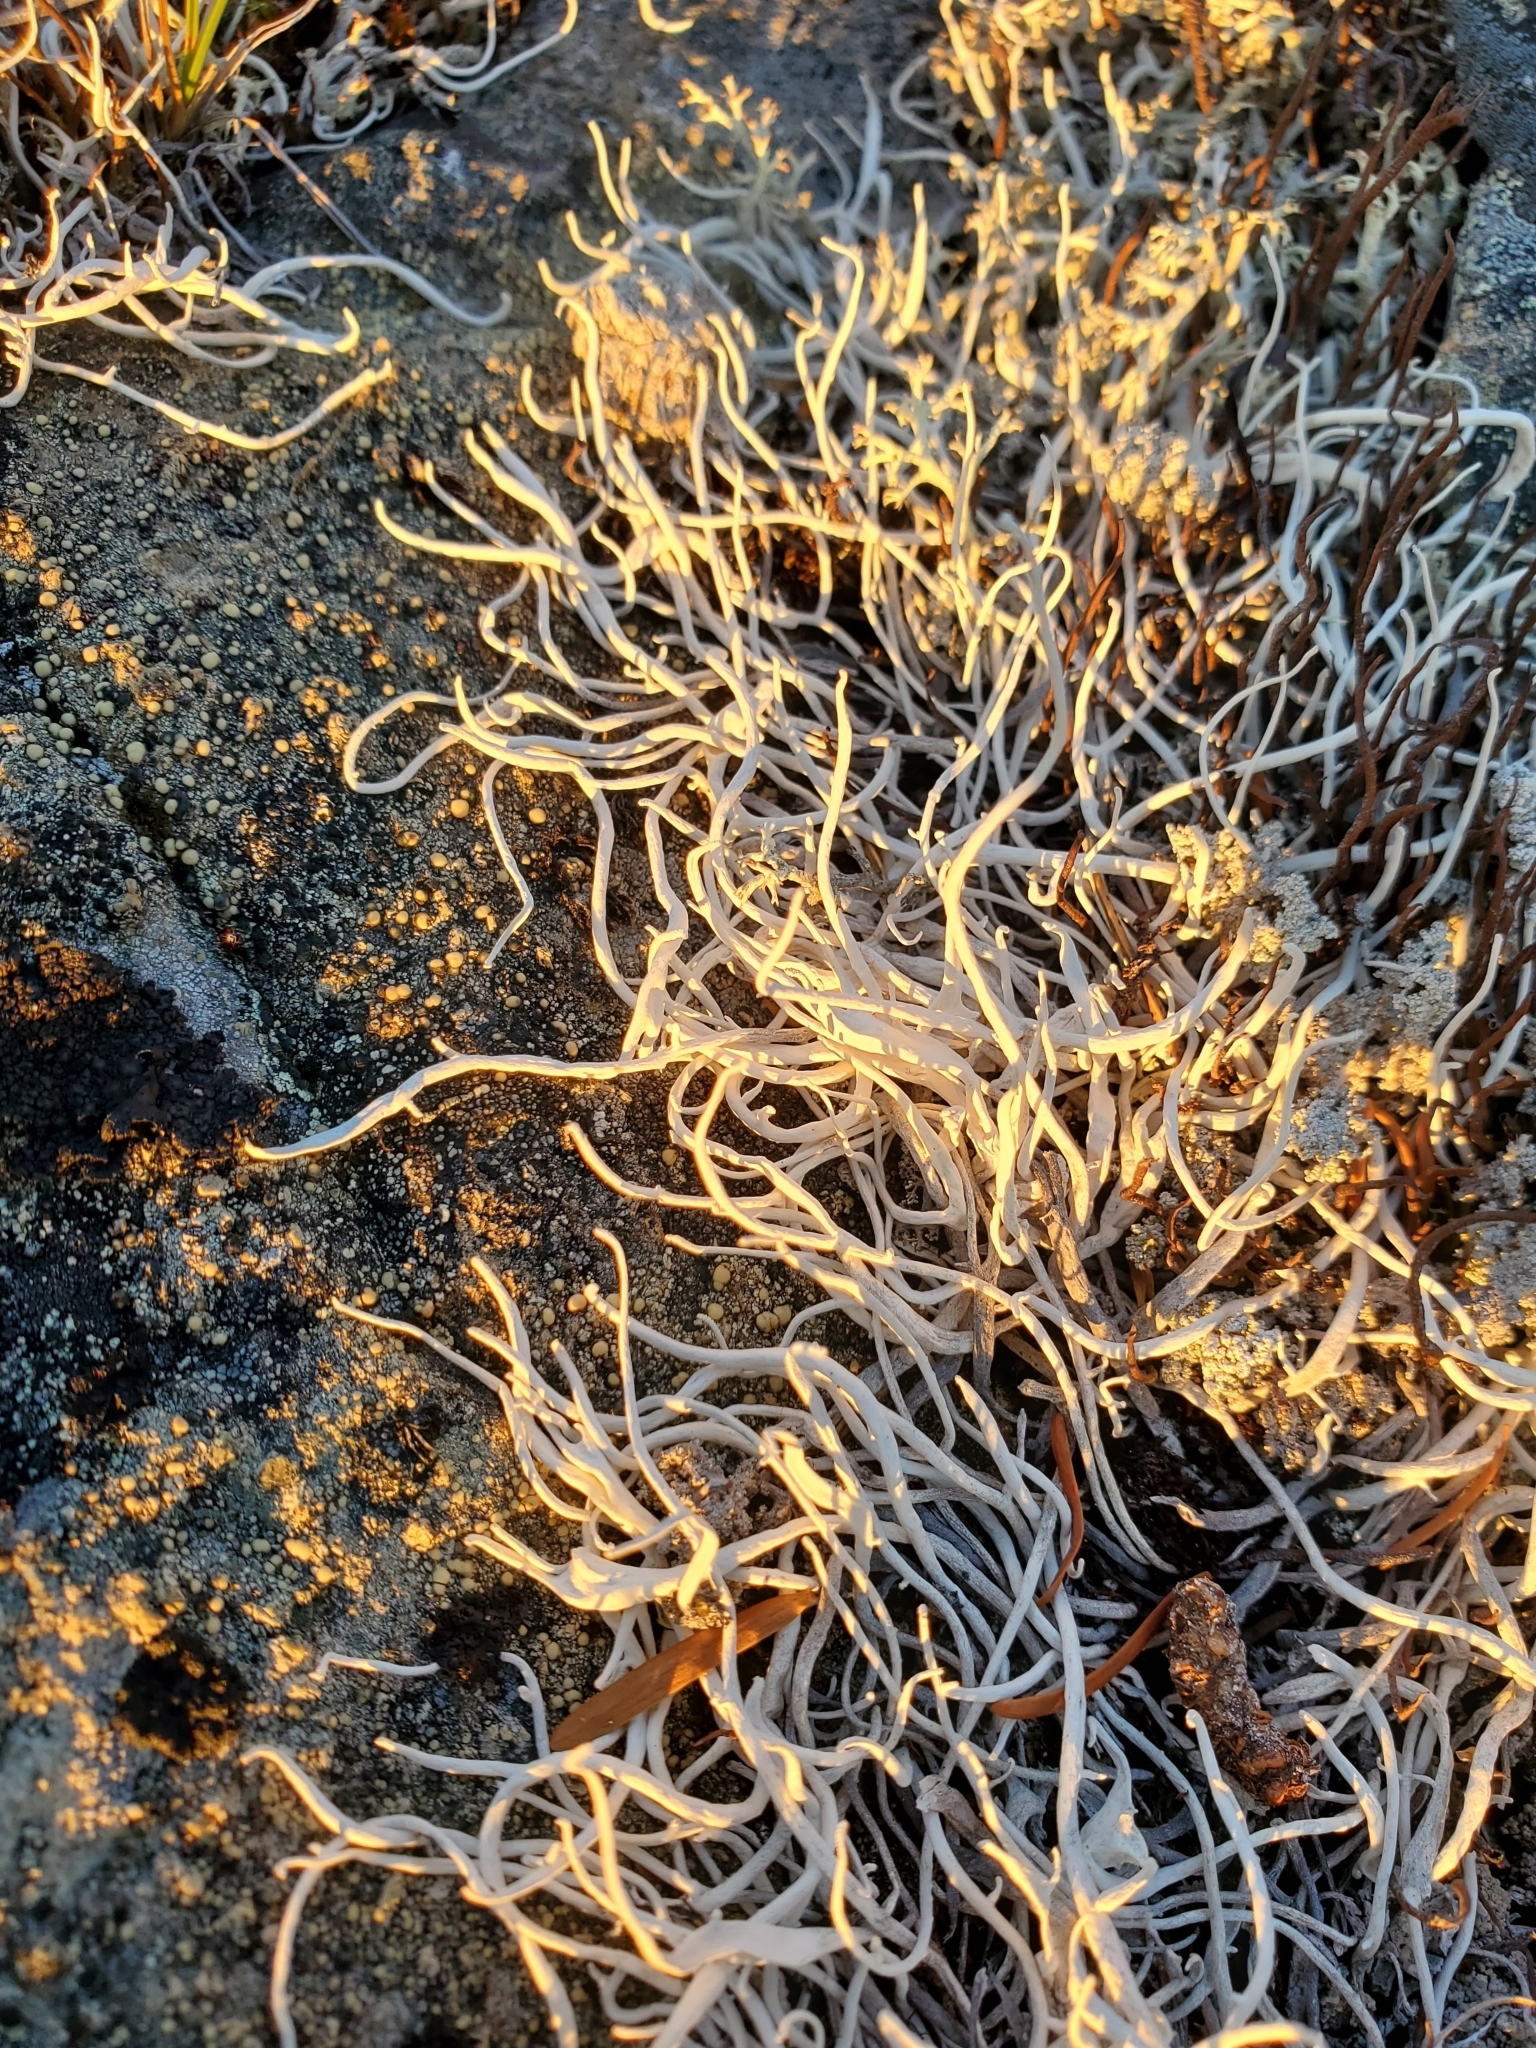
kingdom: Fungi
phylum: Ascomycota
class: Lecanoromycetes
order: Pertusariales
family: Icmadophilaceae
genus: Thamnolia
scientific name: Thamnolia vermicularis
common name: Whiteworm lichen
